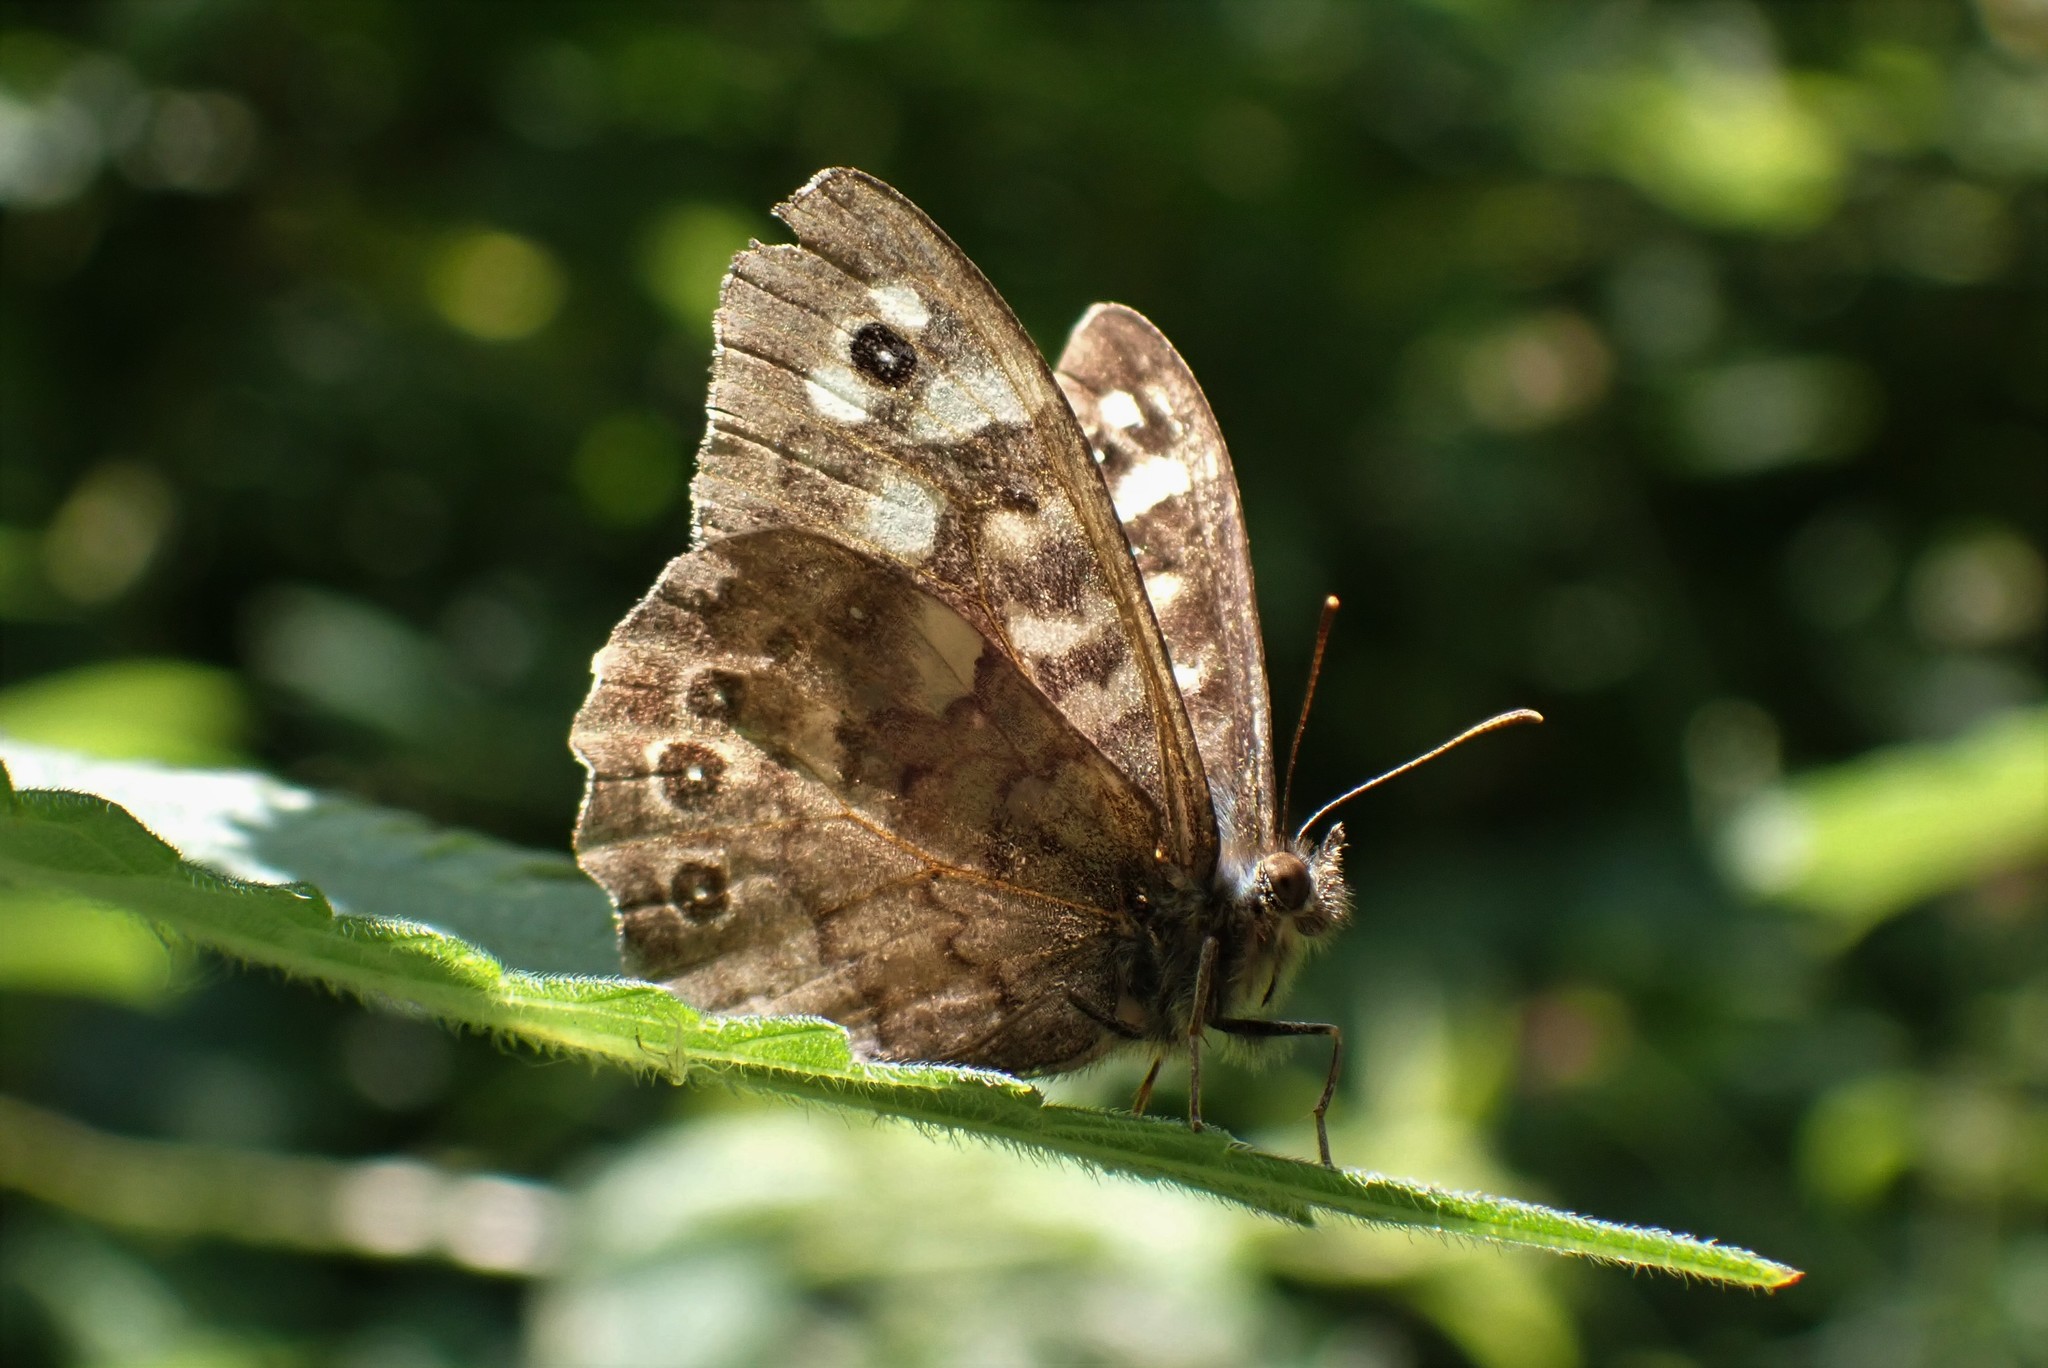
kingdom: Animalia
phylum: Arthropoda
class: Insecta
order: Lepidoptera
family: Nymphalidae
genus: Pararge
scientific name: Pararge aegeria
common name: Speckled wood
